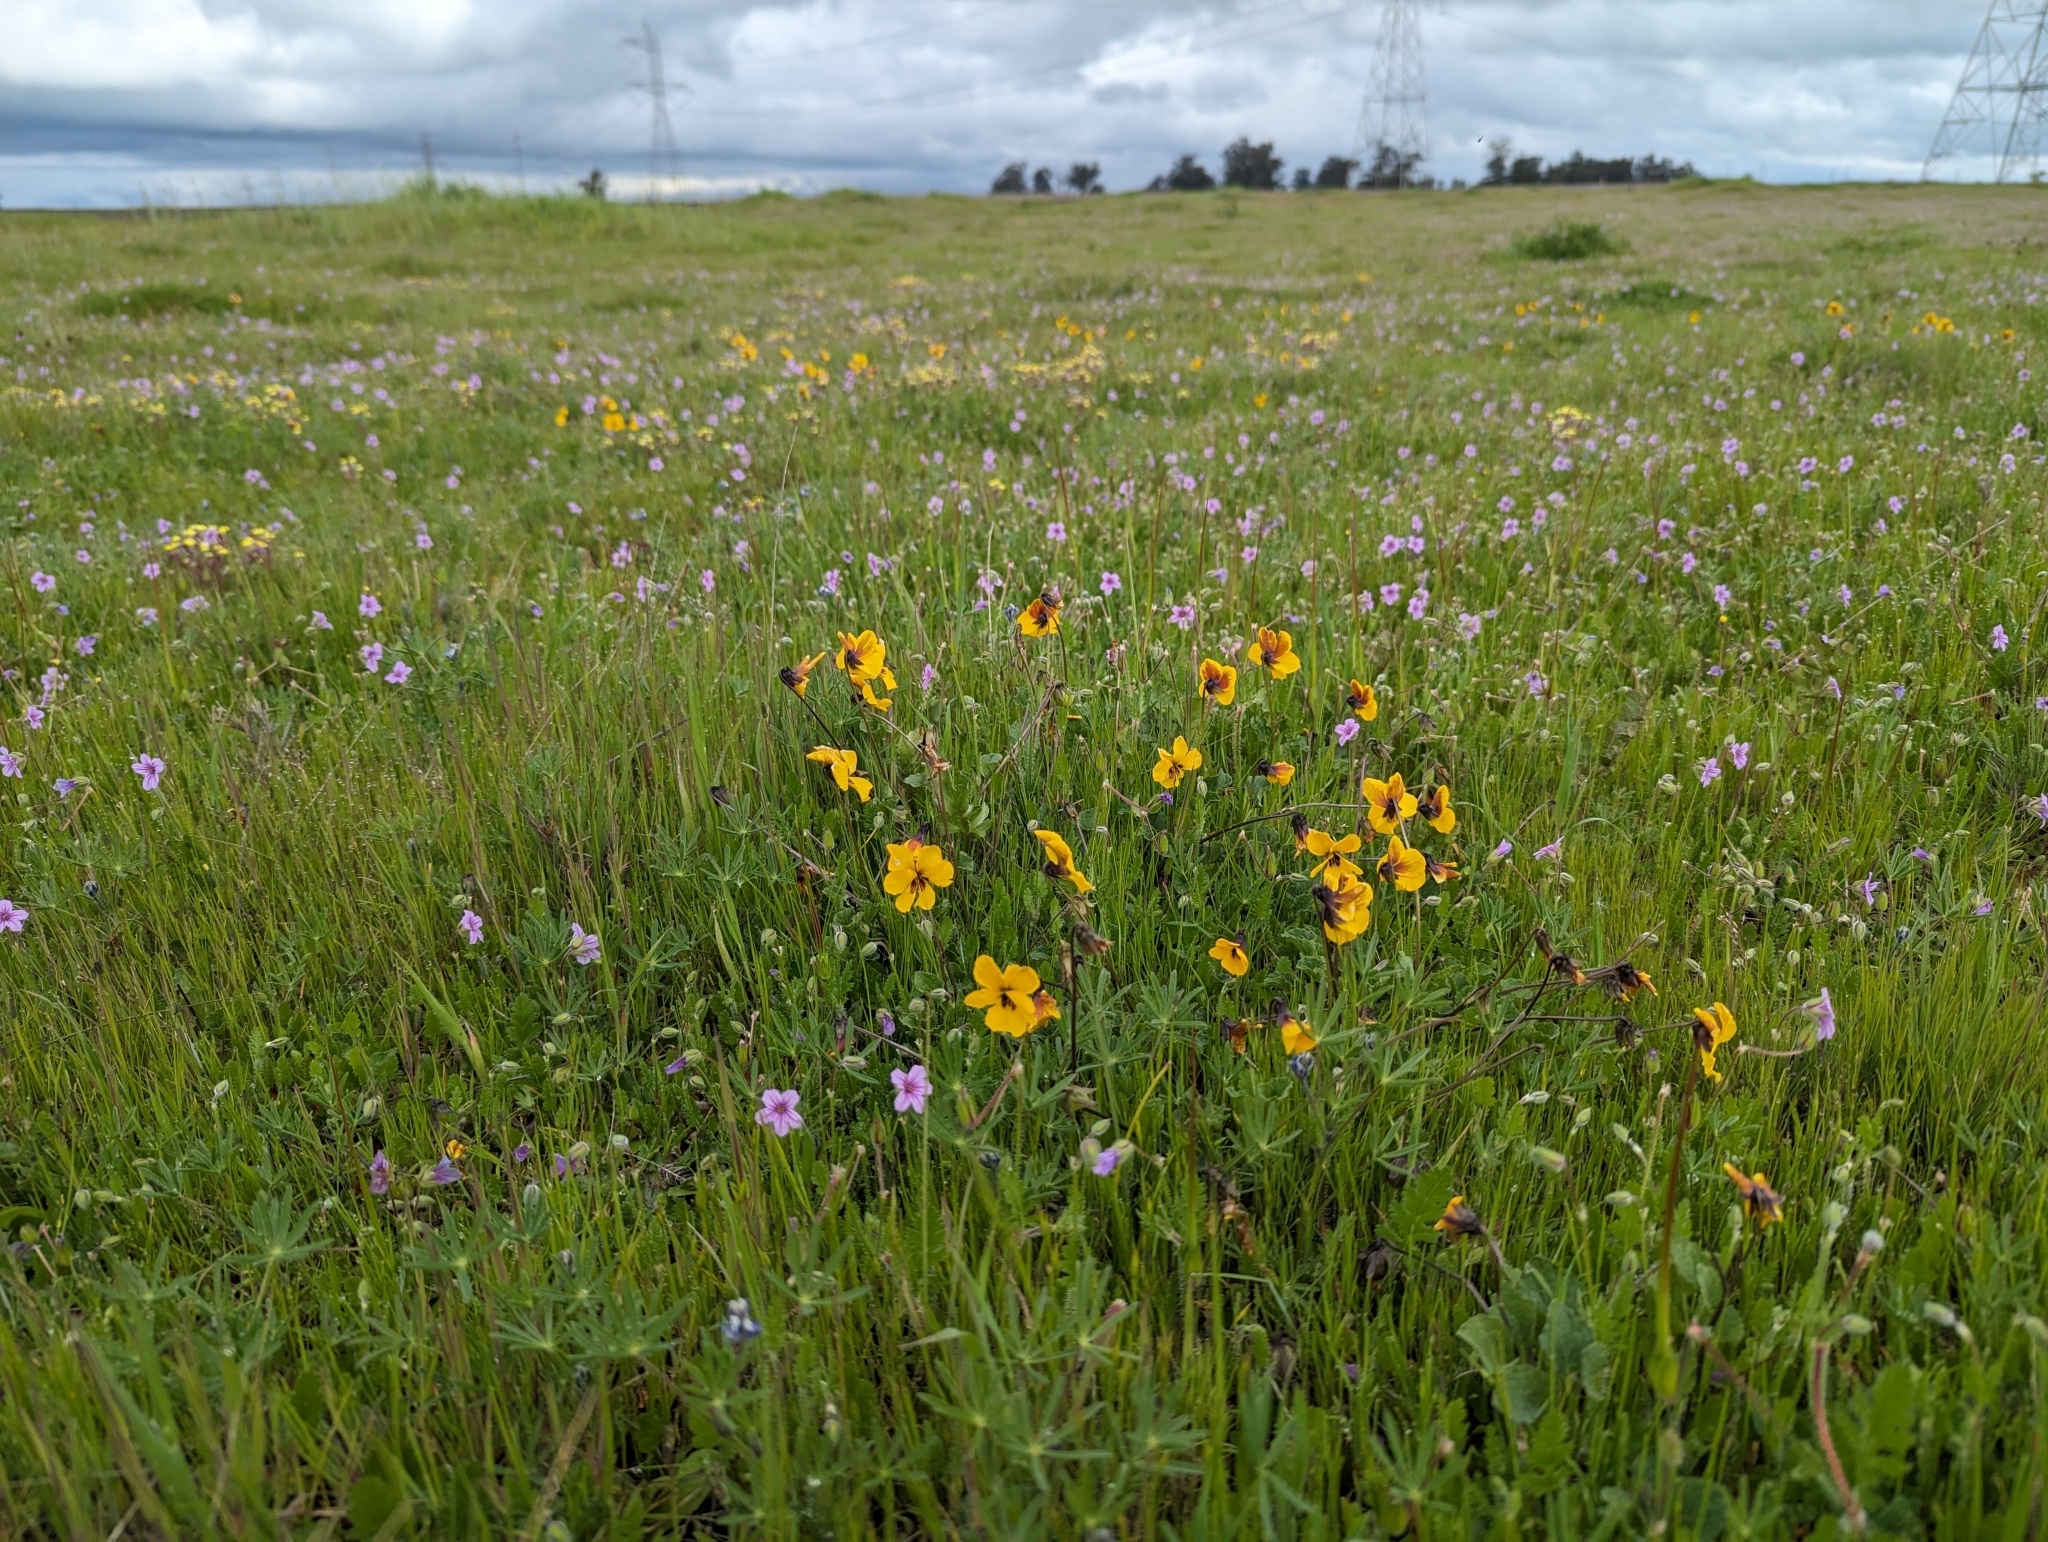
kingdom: Plantae
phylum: Tracheophyta
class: Magnoliopsida
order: Malpighiales
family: Violaceae
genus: Viola
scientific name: Viola pedunculata
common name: California golden violet
